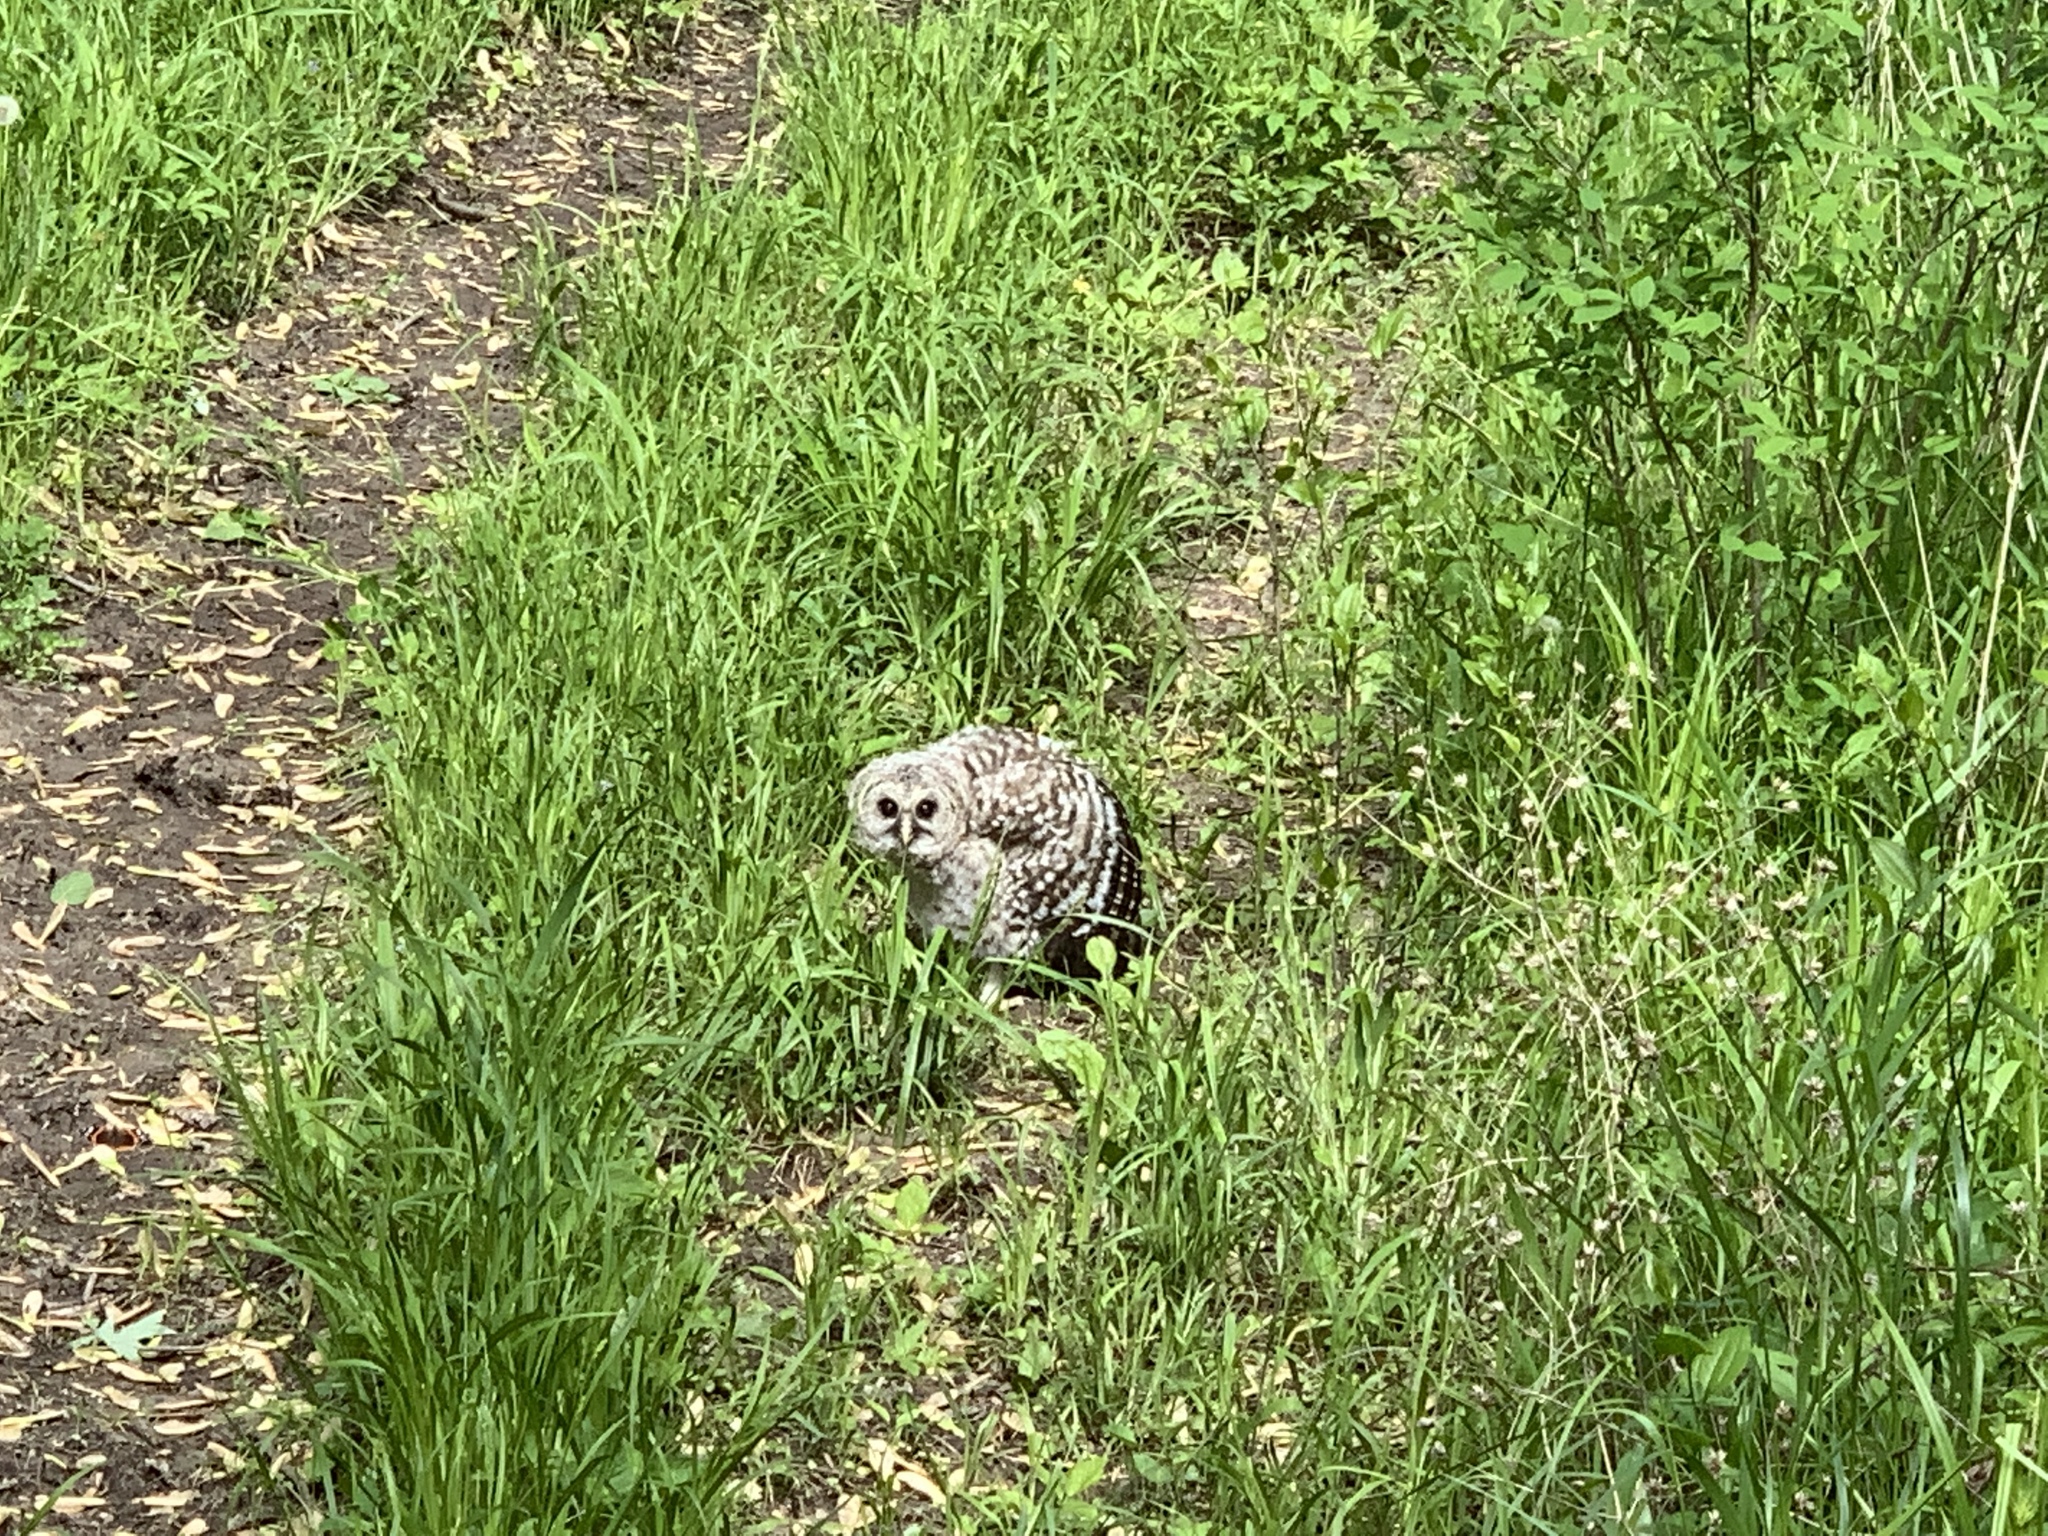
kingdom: Animalia
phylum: Chordata
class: Aves
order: Strigiformes
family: Strigidae
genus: Strix
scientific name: Strix varia
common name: Barred owl
